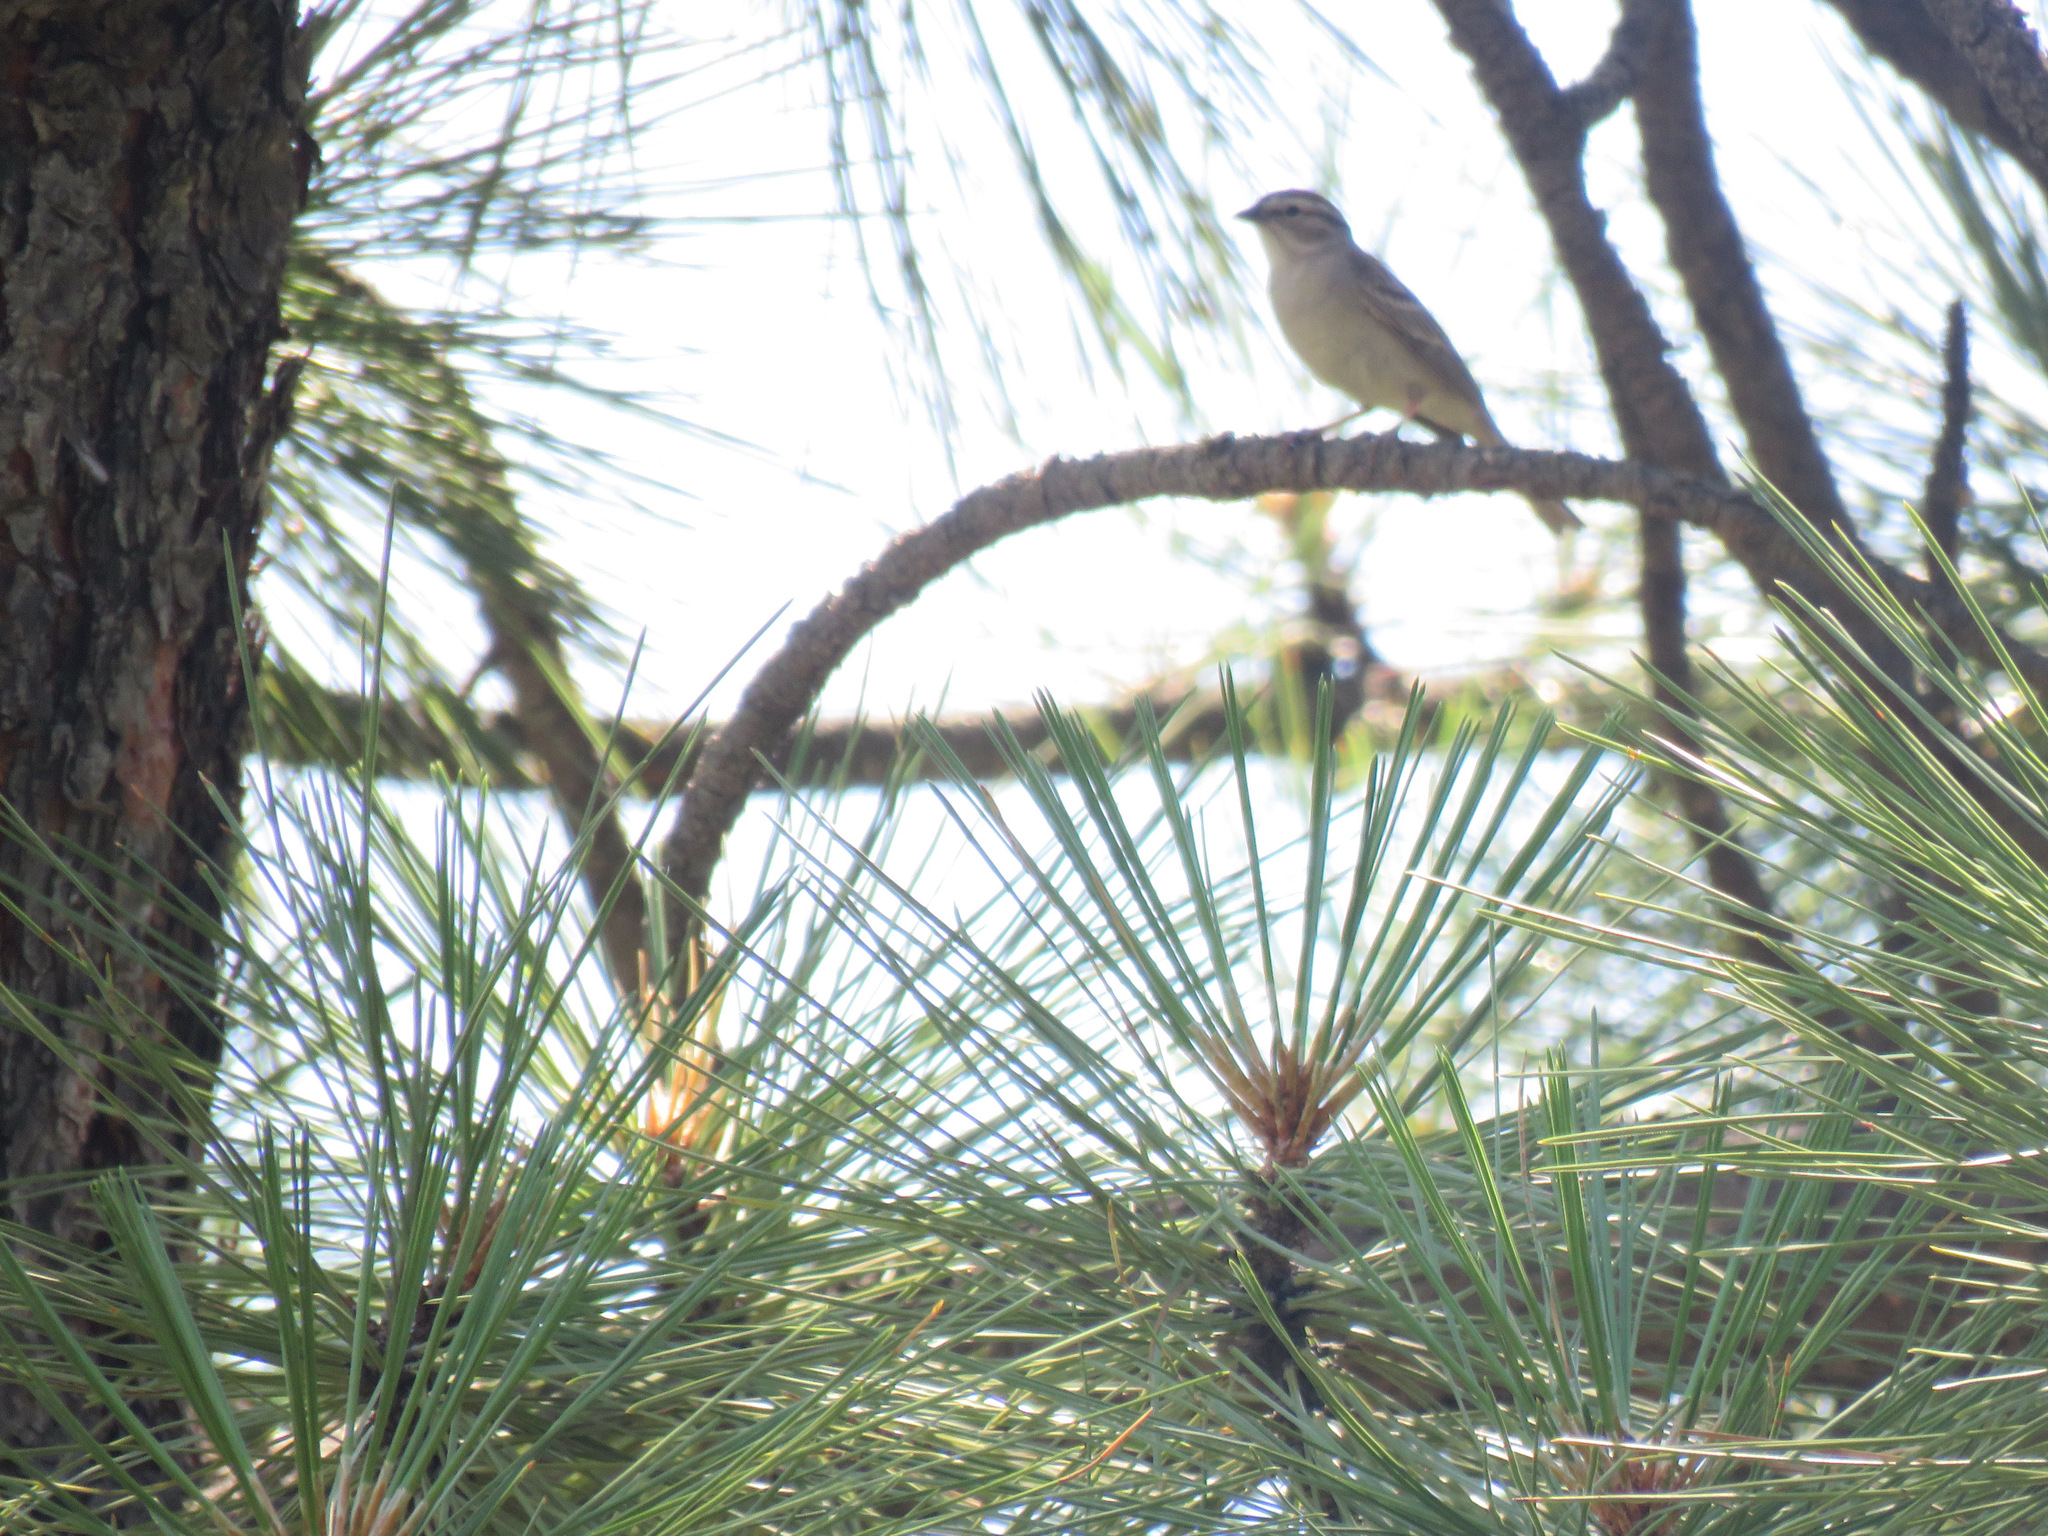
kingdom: Animalia
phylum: Chordata
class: Aves
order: Passeriformes
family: Passerellidae
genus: Spizella
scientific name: Spizella passerina
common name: Chipping sparrow
